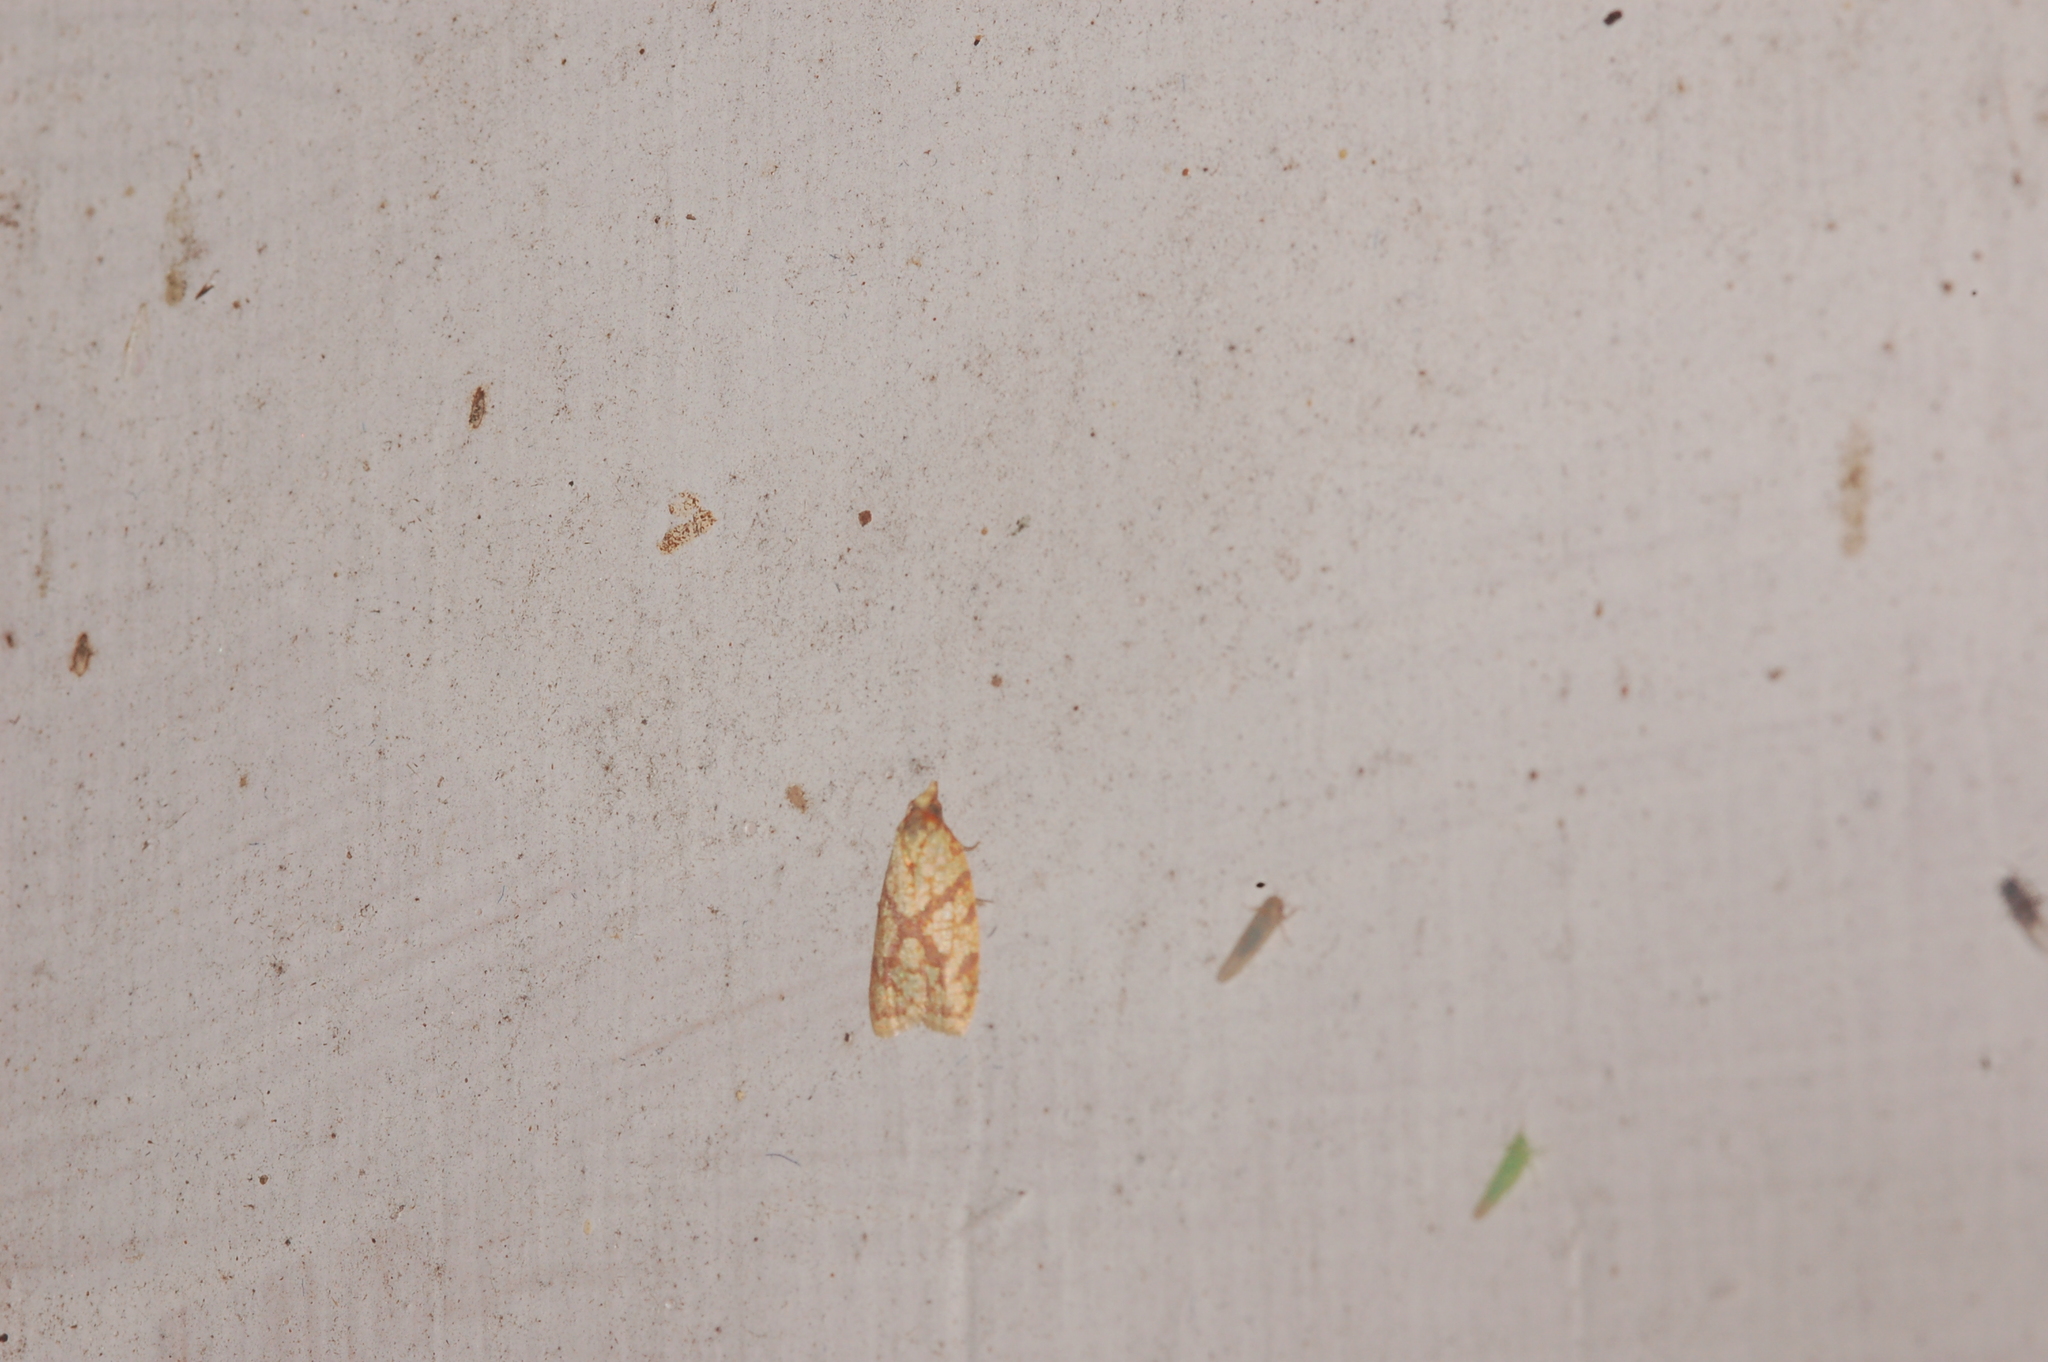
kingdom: Animalia
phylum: Arthropoda
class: Insecta
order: Lepidoptera
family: Tortricidae
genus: Sparganothis
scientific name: Sparganothis sulfureana
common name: Sparganothis fruitworm moth
